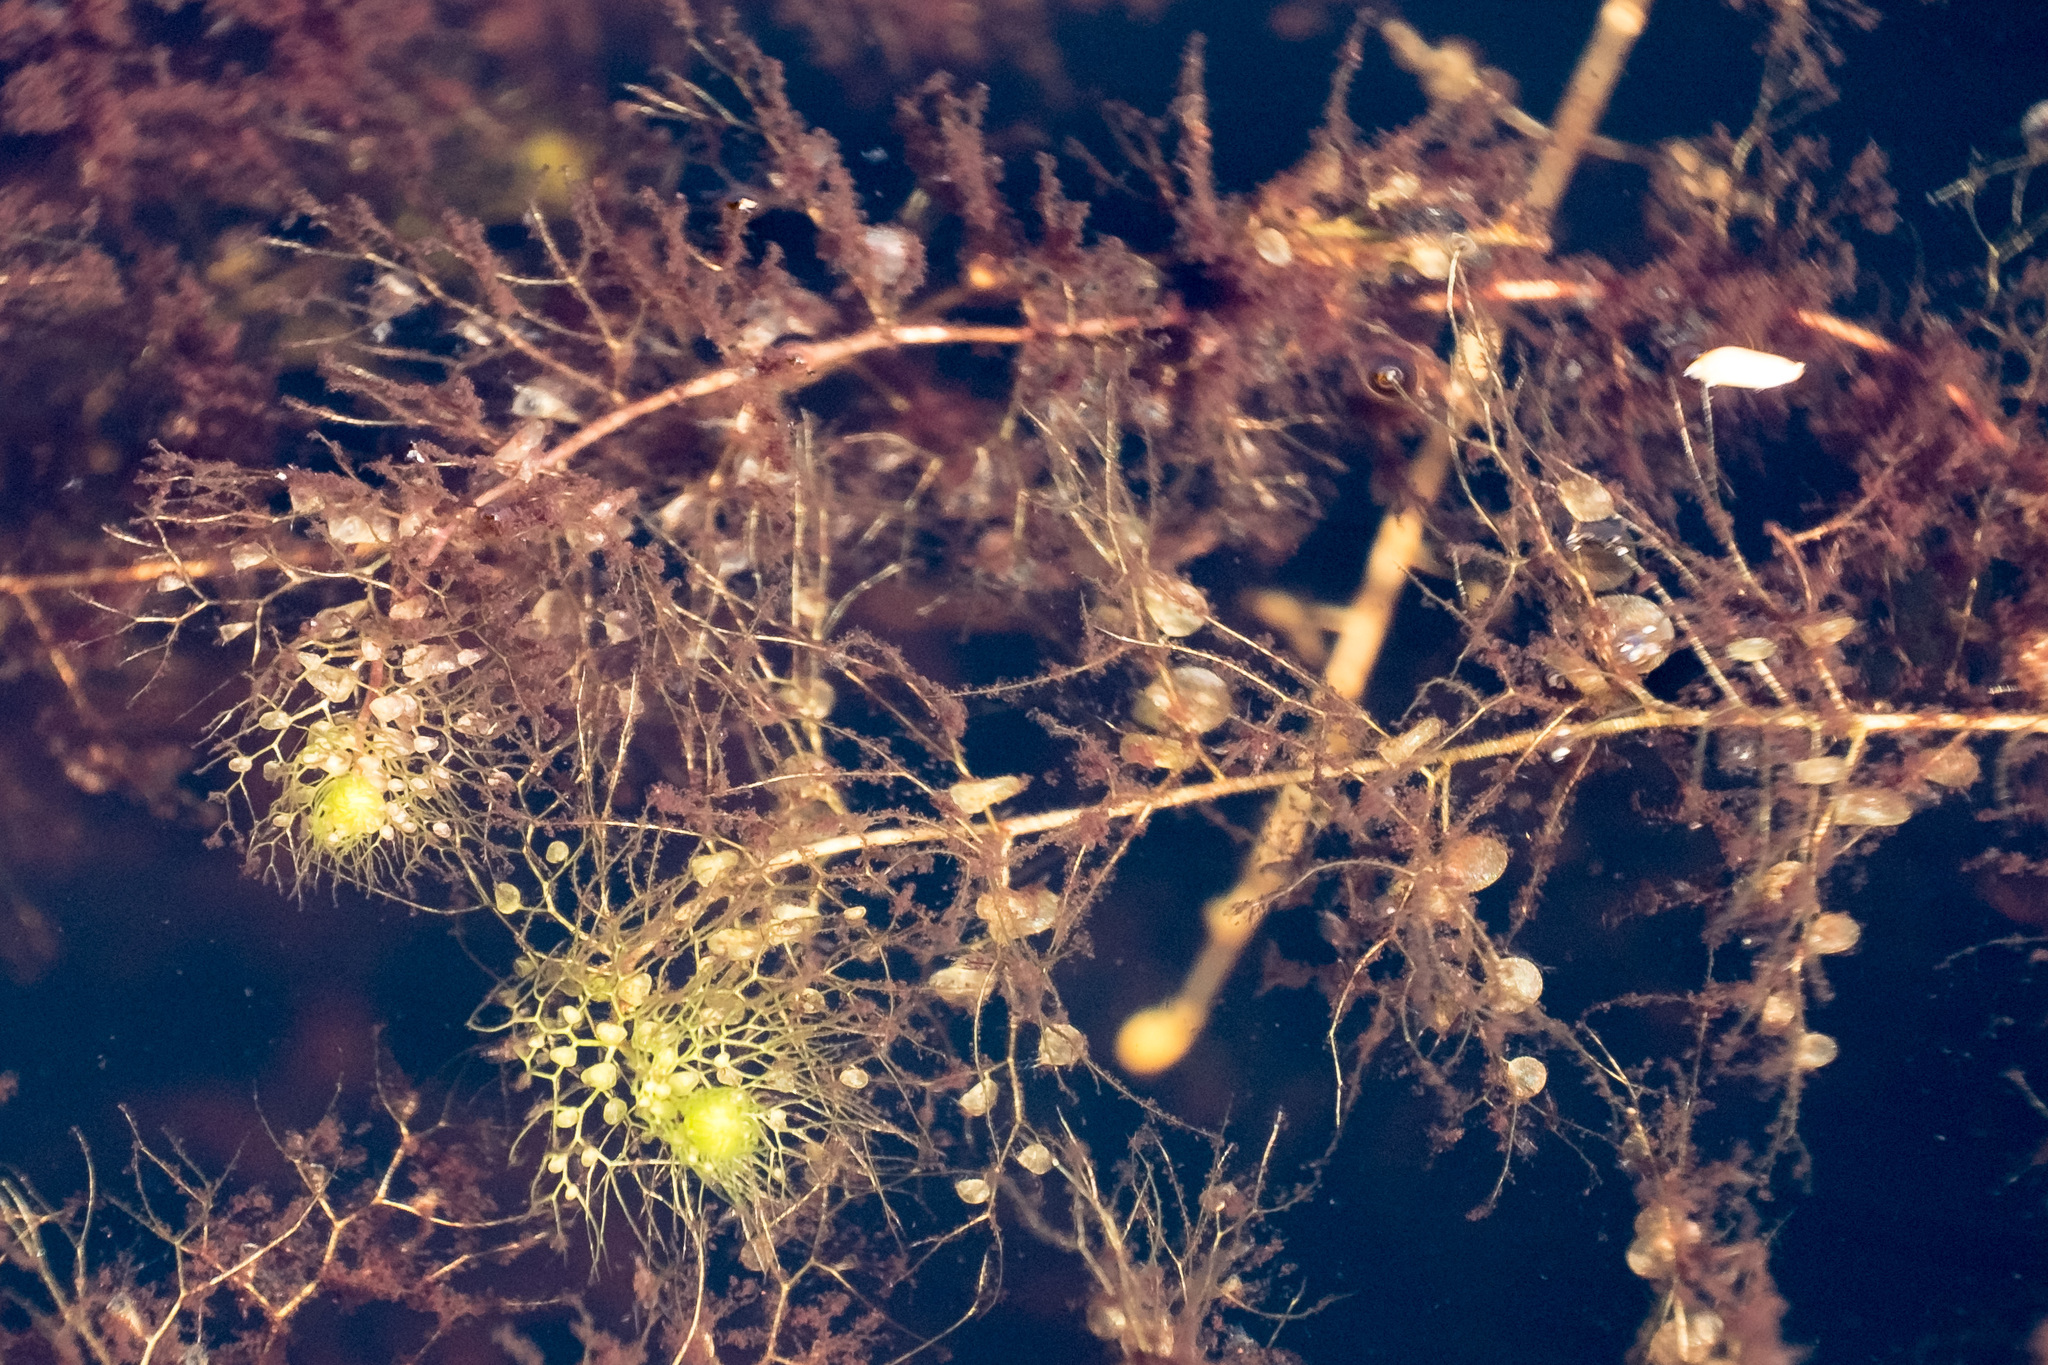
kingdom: Plantae
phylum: Tracheophyta
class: Magnoliopsida
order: Lamiales
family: Lentibulariaceae
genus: Utricularia
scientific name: Utricularia
